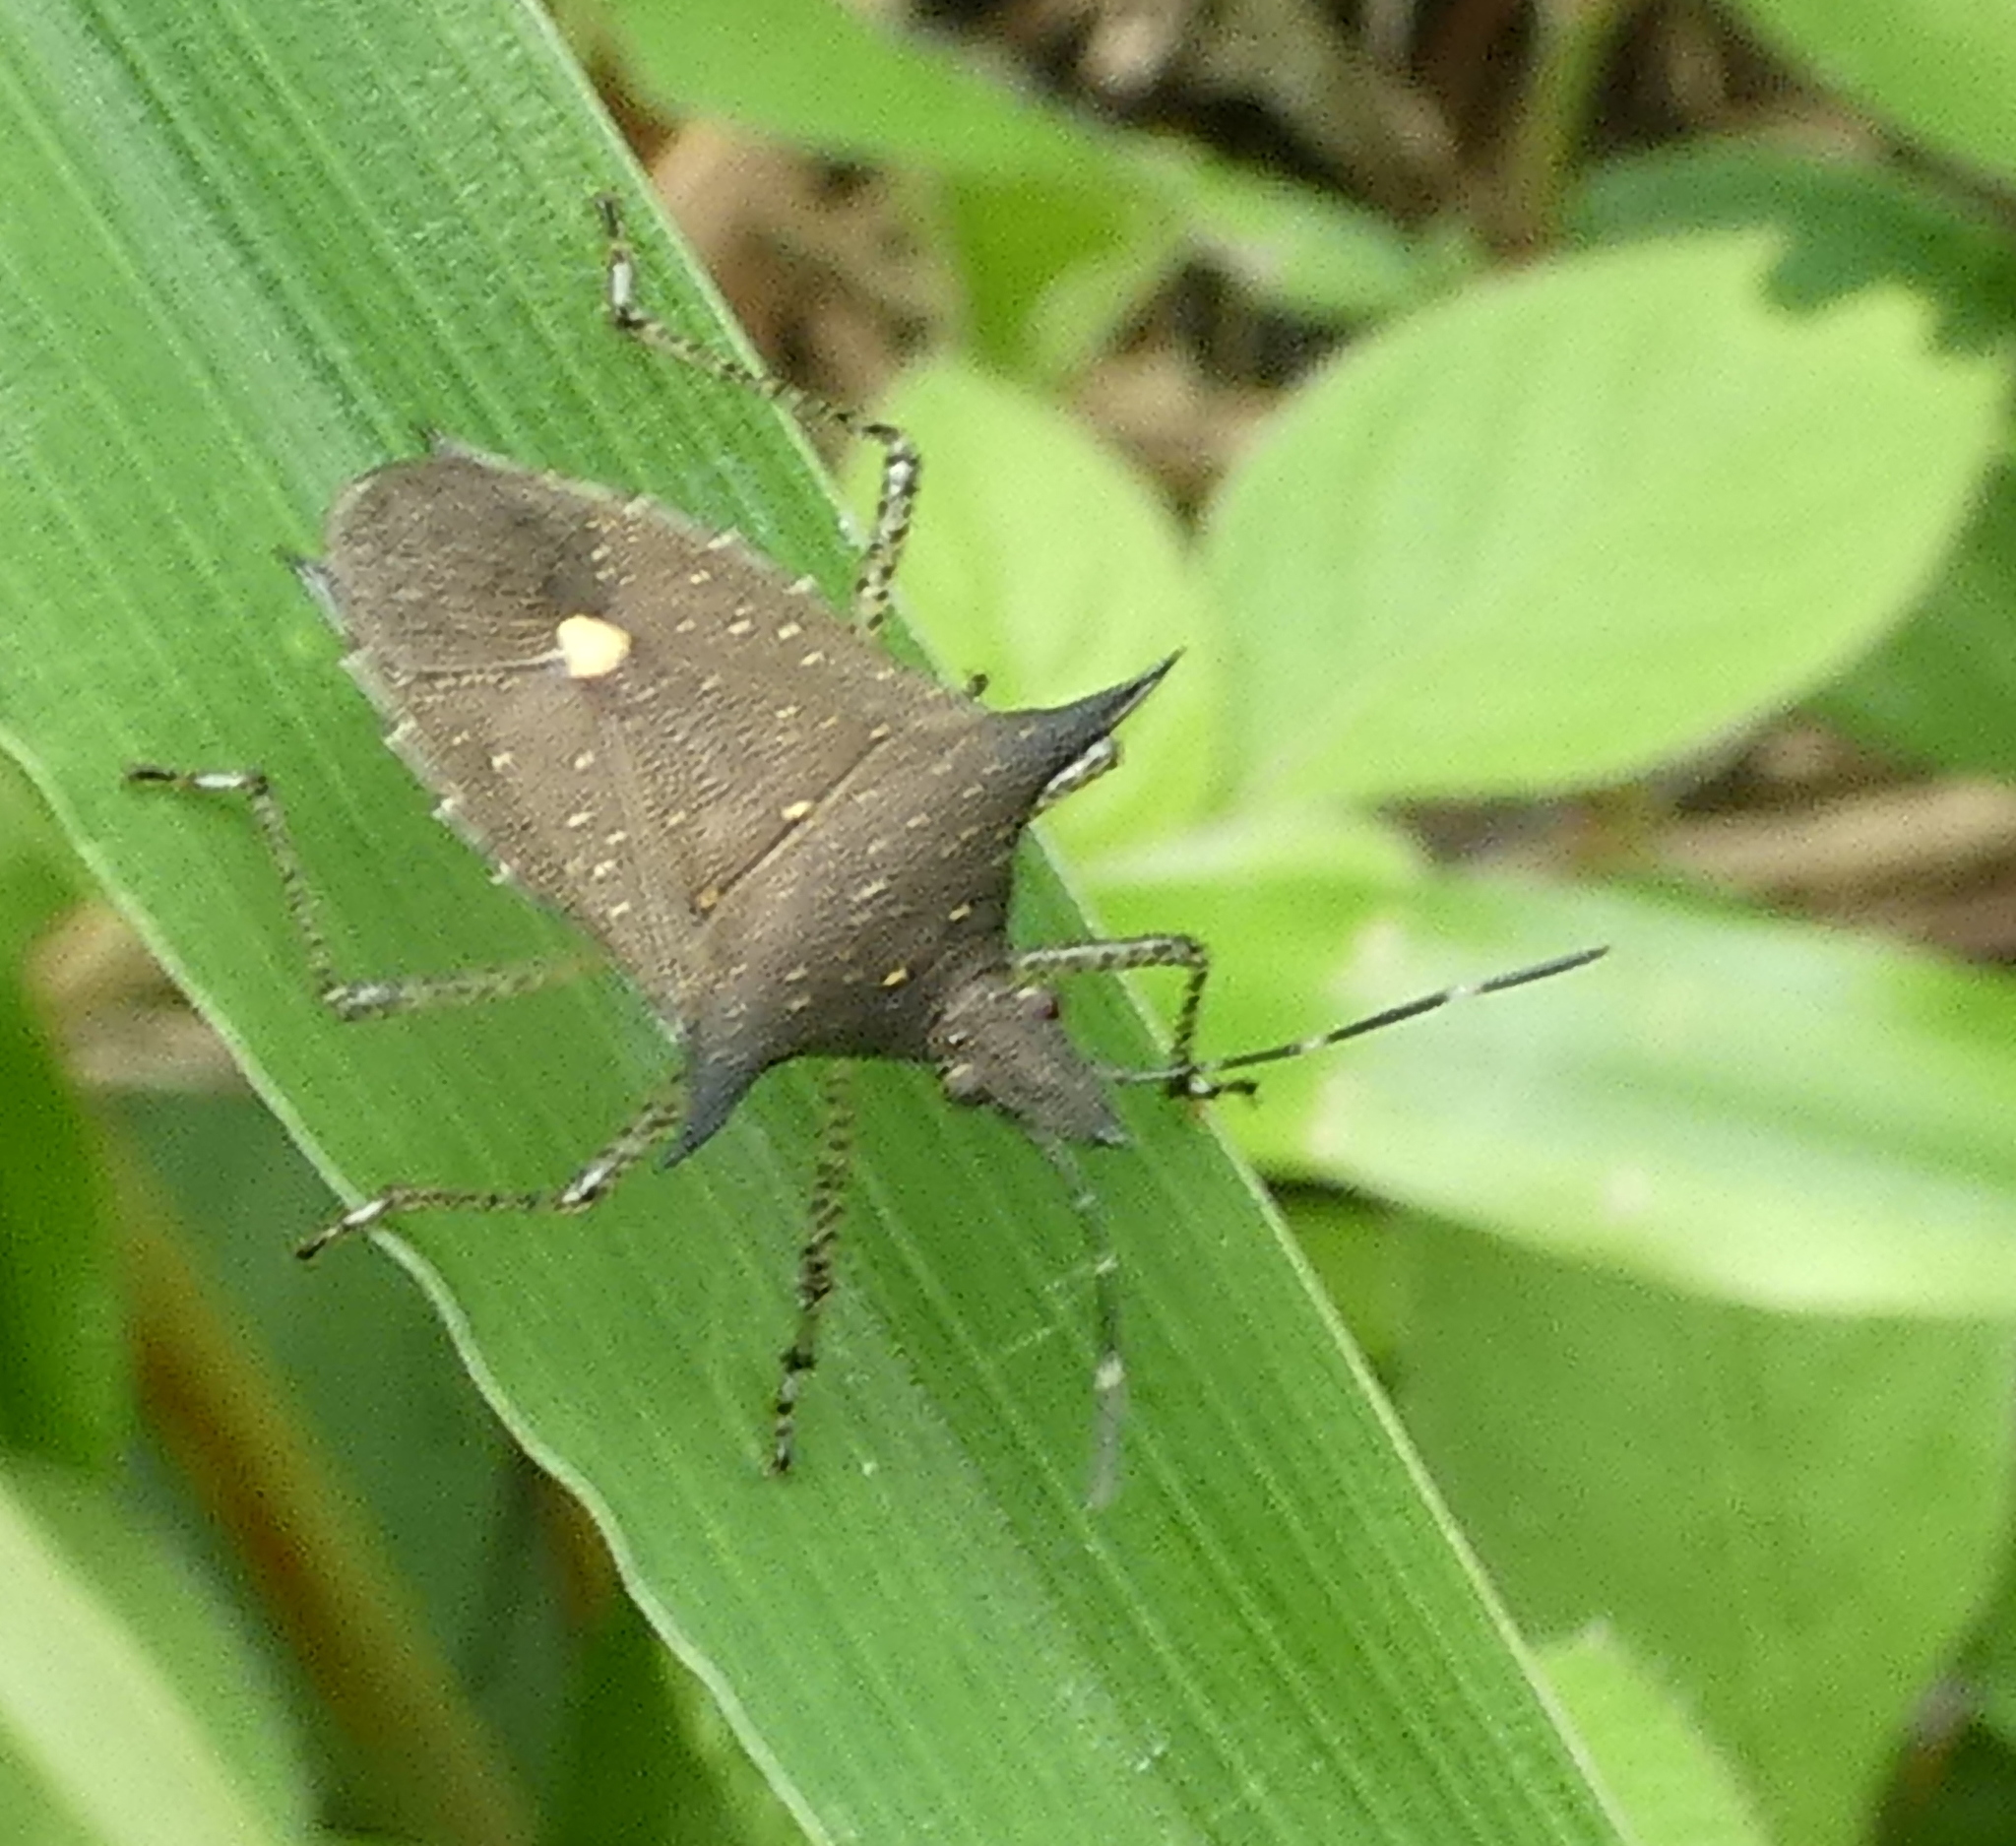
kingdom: Animalia
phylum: Arthropoda
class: Insecta
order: Hemiptera
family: Pentatomidae
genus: Proxys
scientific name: Proxys albopunctulatus
